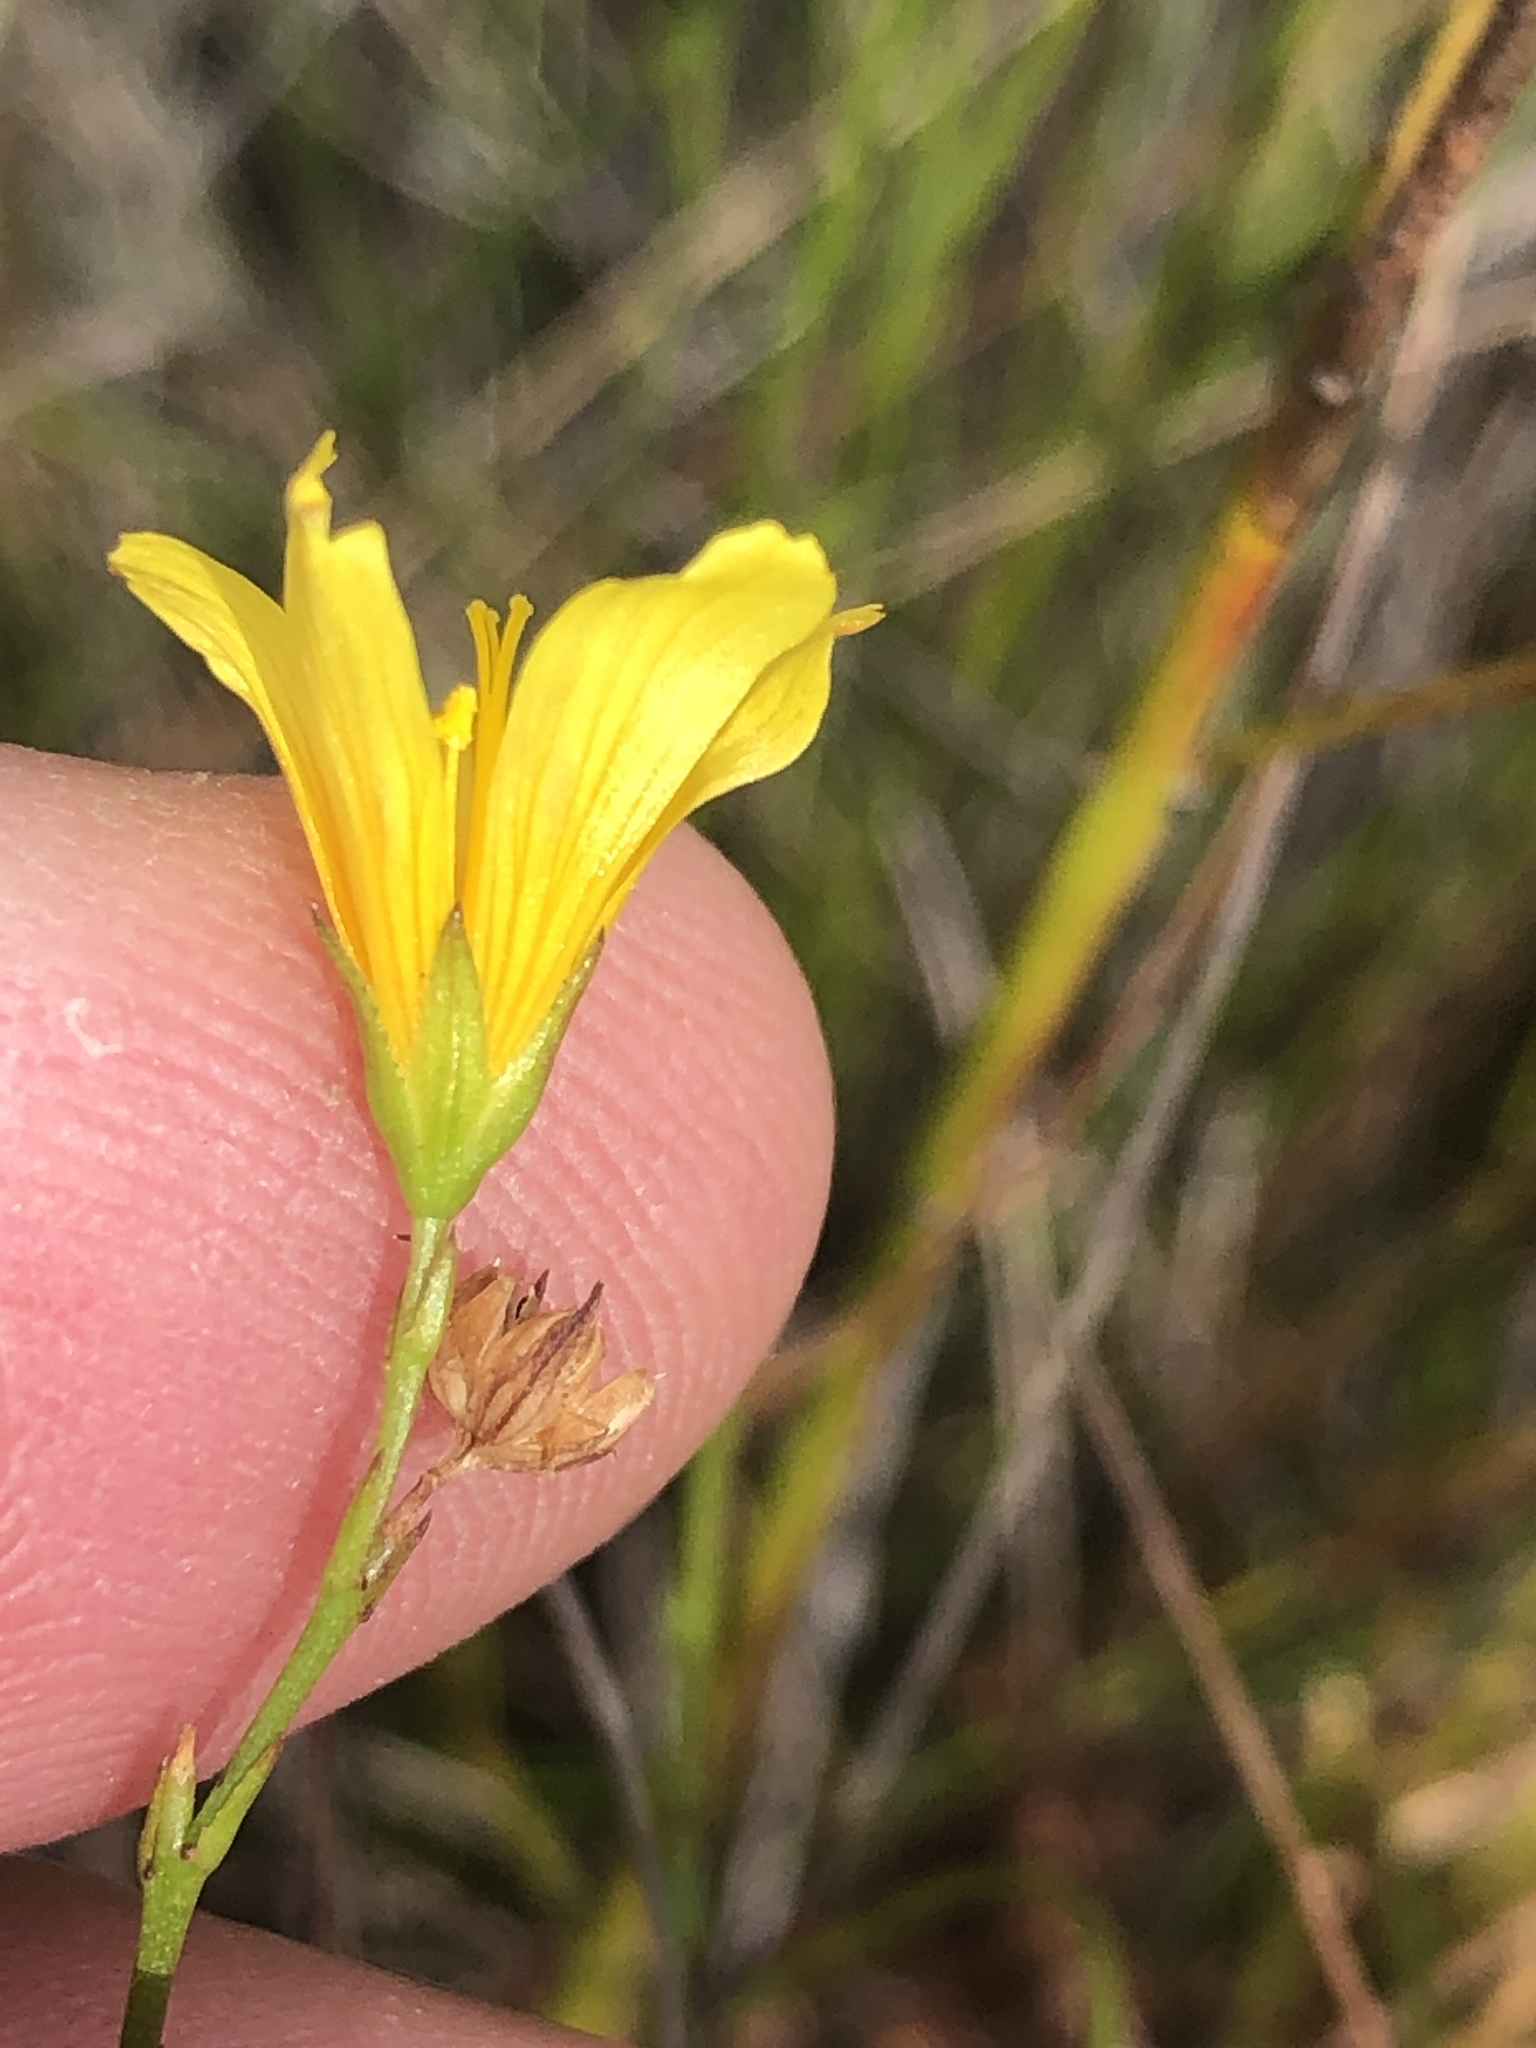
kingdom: Plantae
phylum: Tracheophyta
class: Magnoliopsida
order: Malpighiales
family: Linaceae
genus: Linum
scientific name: Linum africanum
